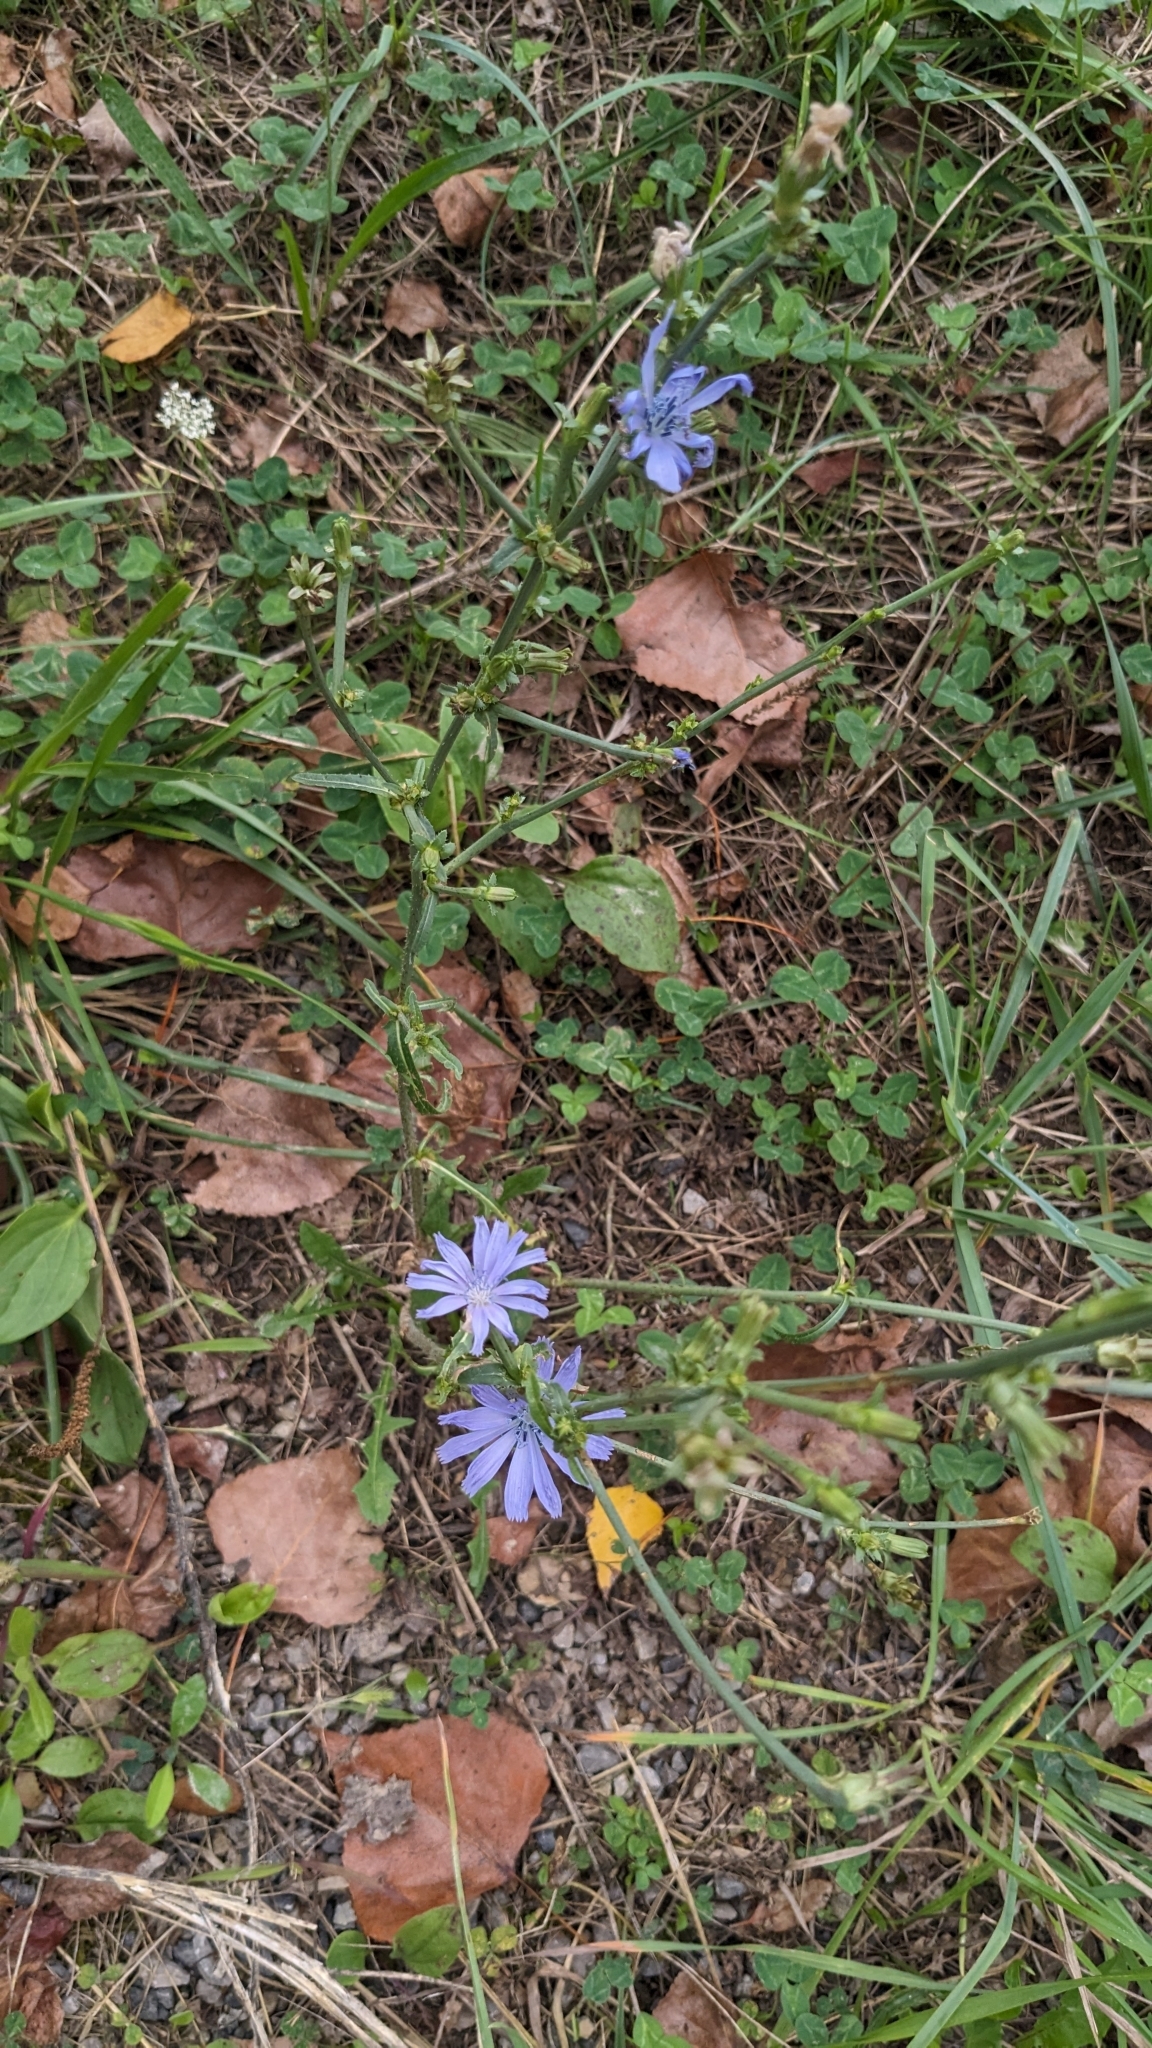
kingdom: Plantae
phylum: Tracheophyta
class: Magnoliopsida
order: Asterales
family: Asteraceae
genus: Cichorium
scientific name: Cichorium intybus
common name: Chicory
